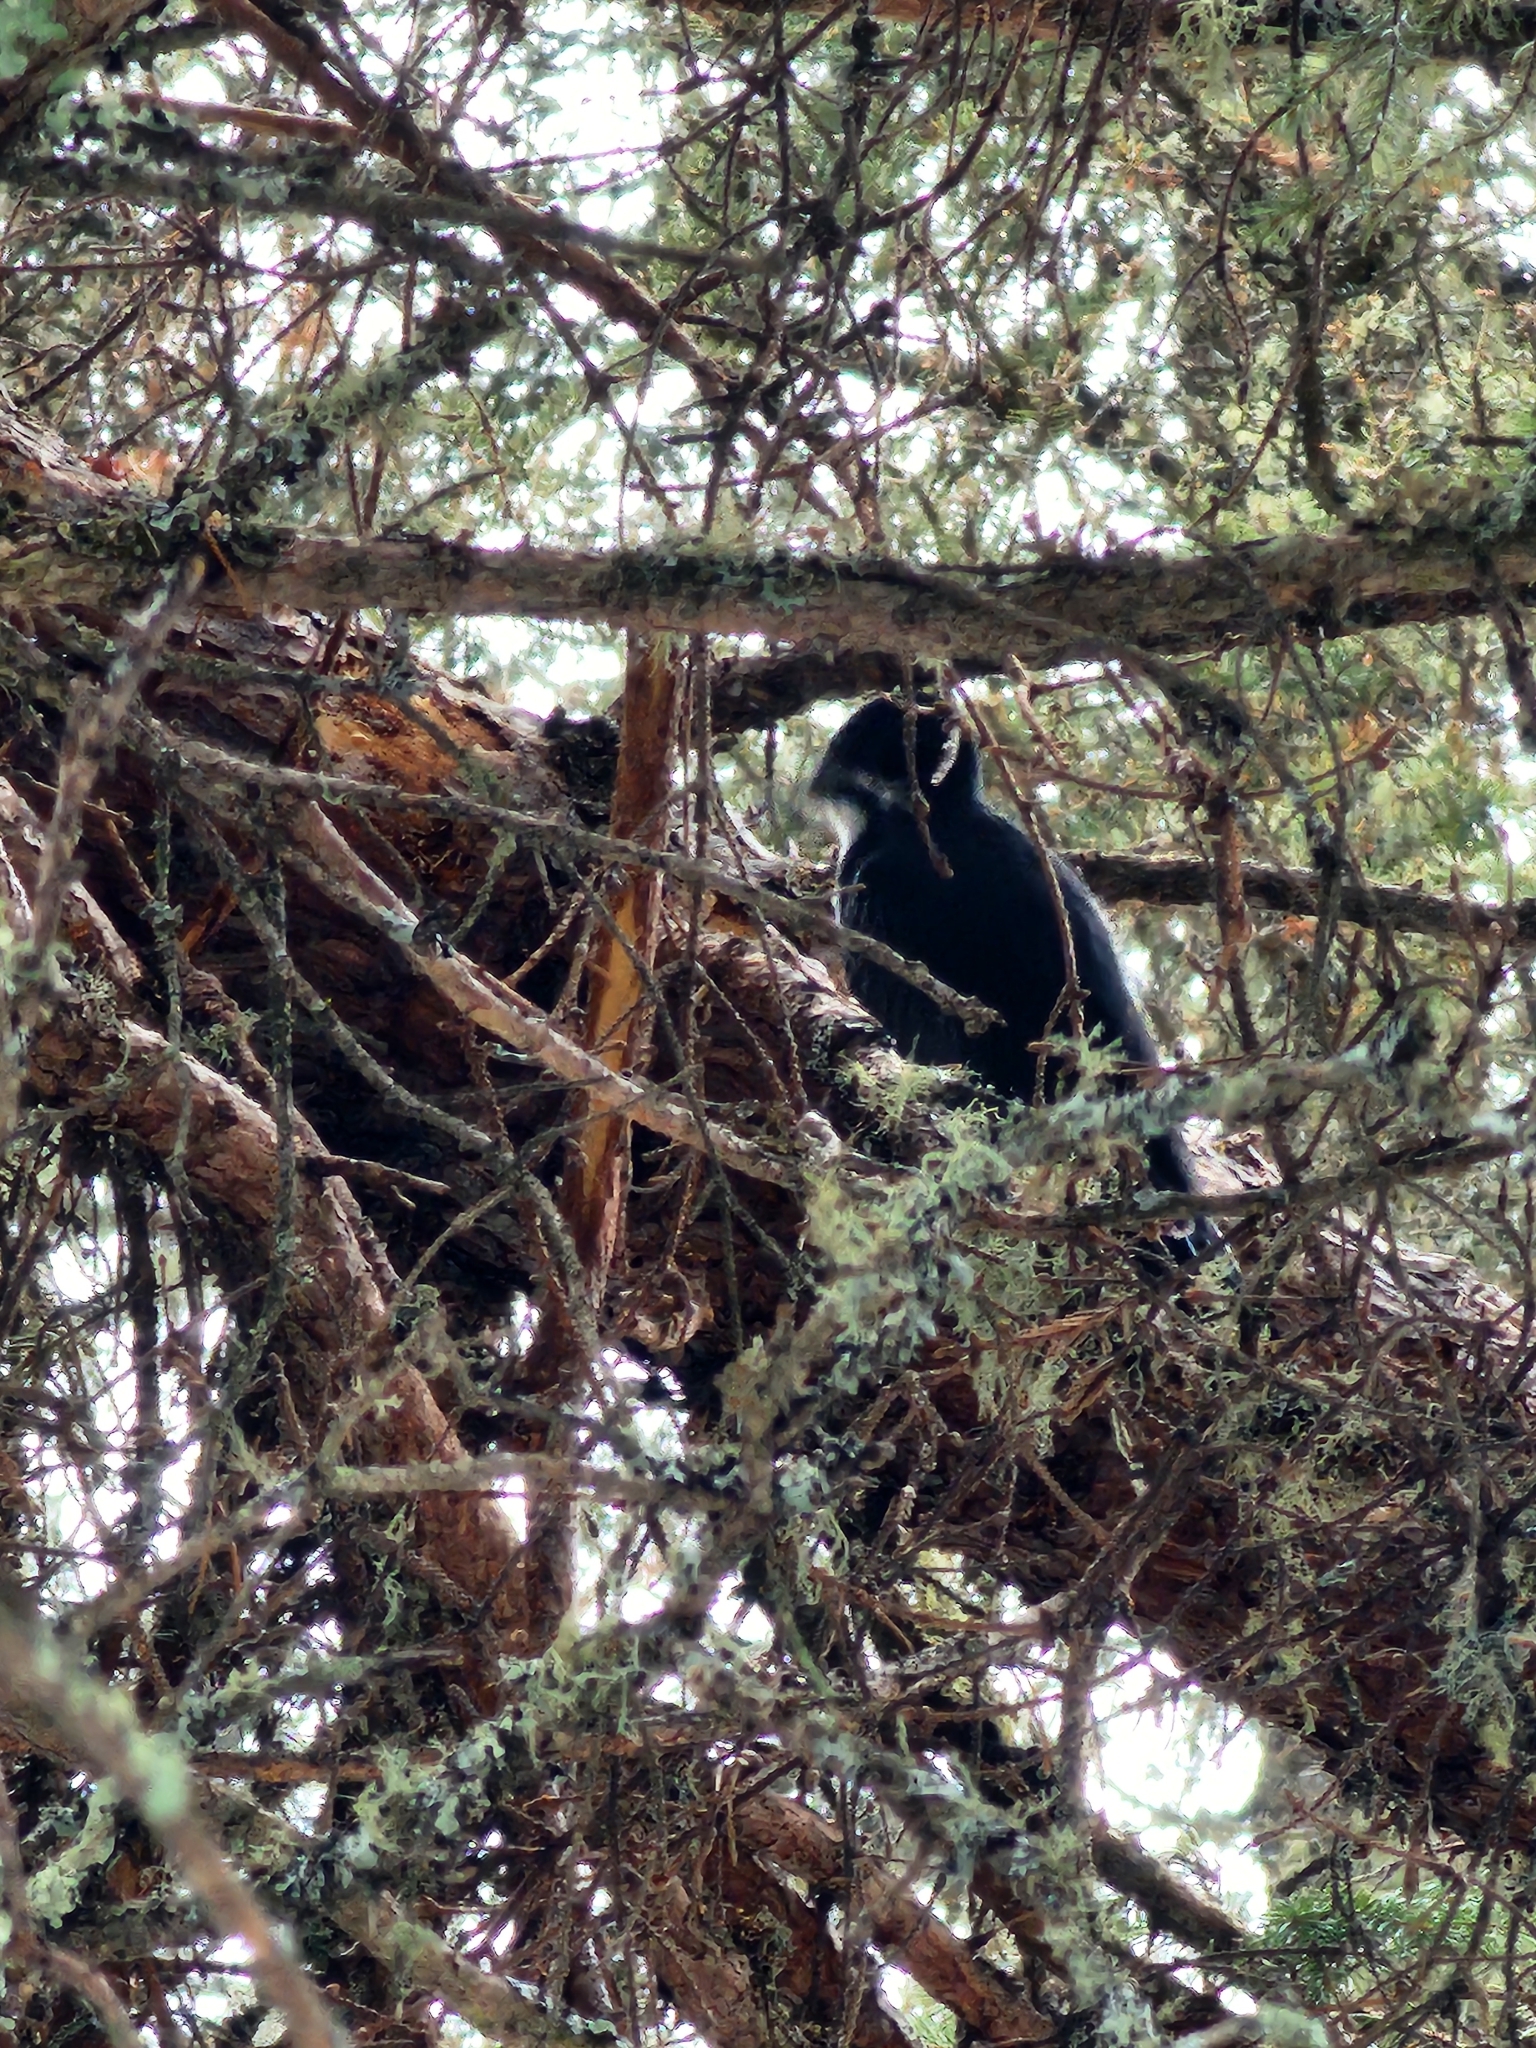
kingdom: Animalia
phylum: Chordata
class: Aves
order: Piciformes
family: Picidae
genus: Picoides
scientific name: Picoides arcticus
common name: Black-backed woodpecker
